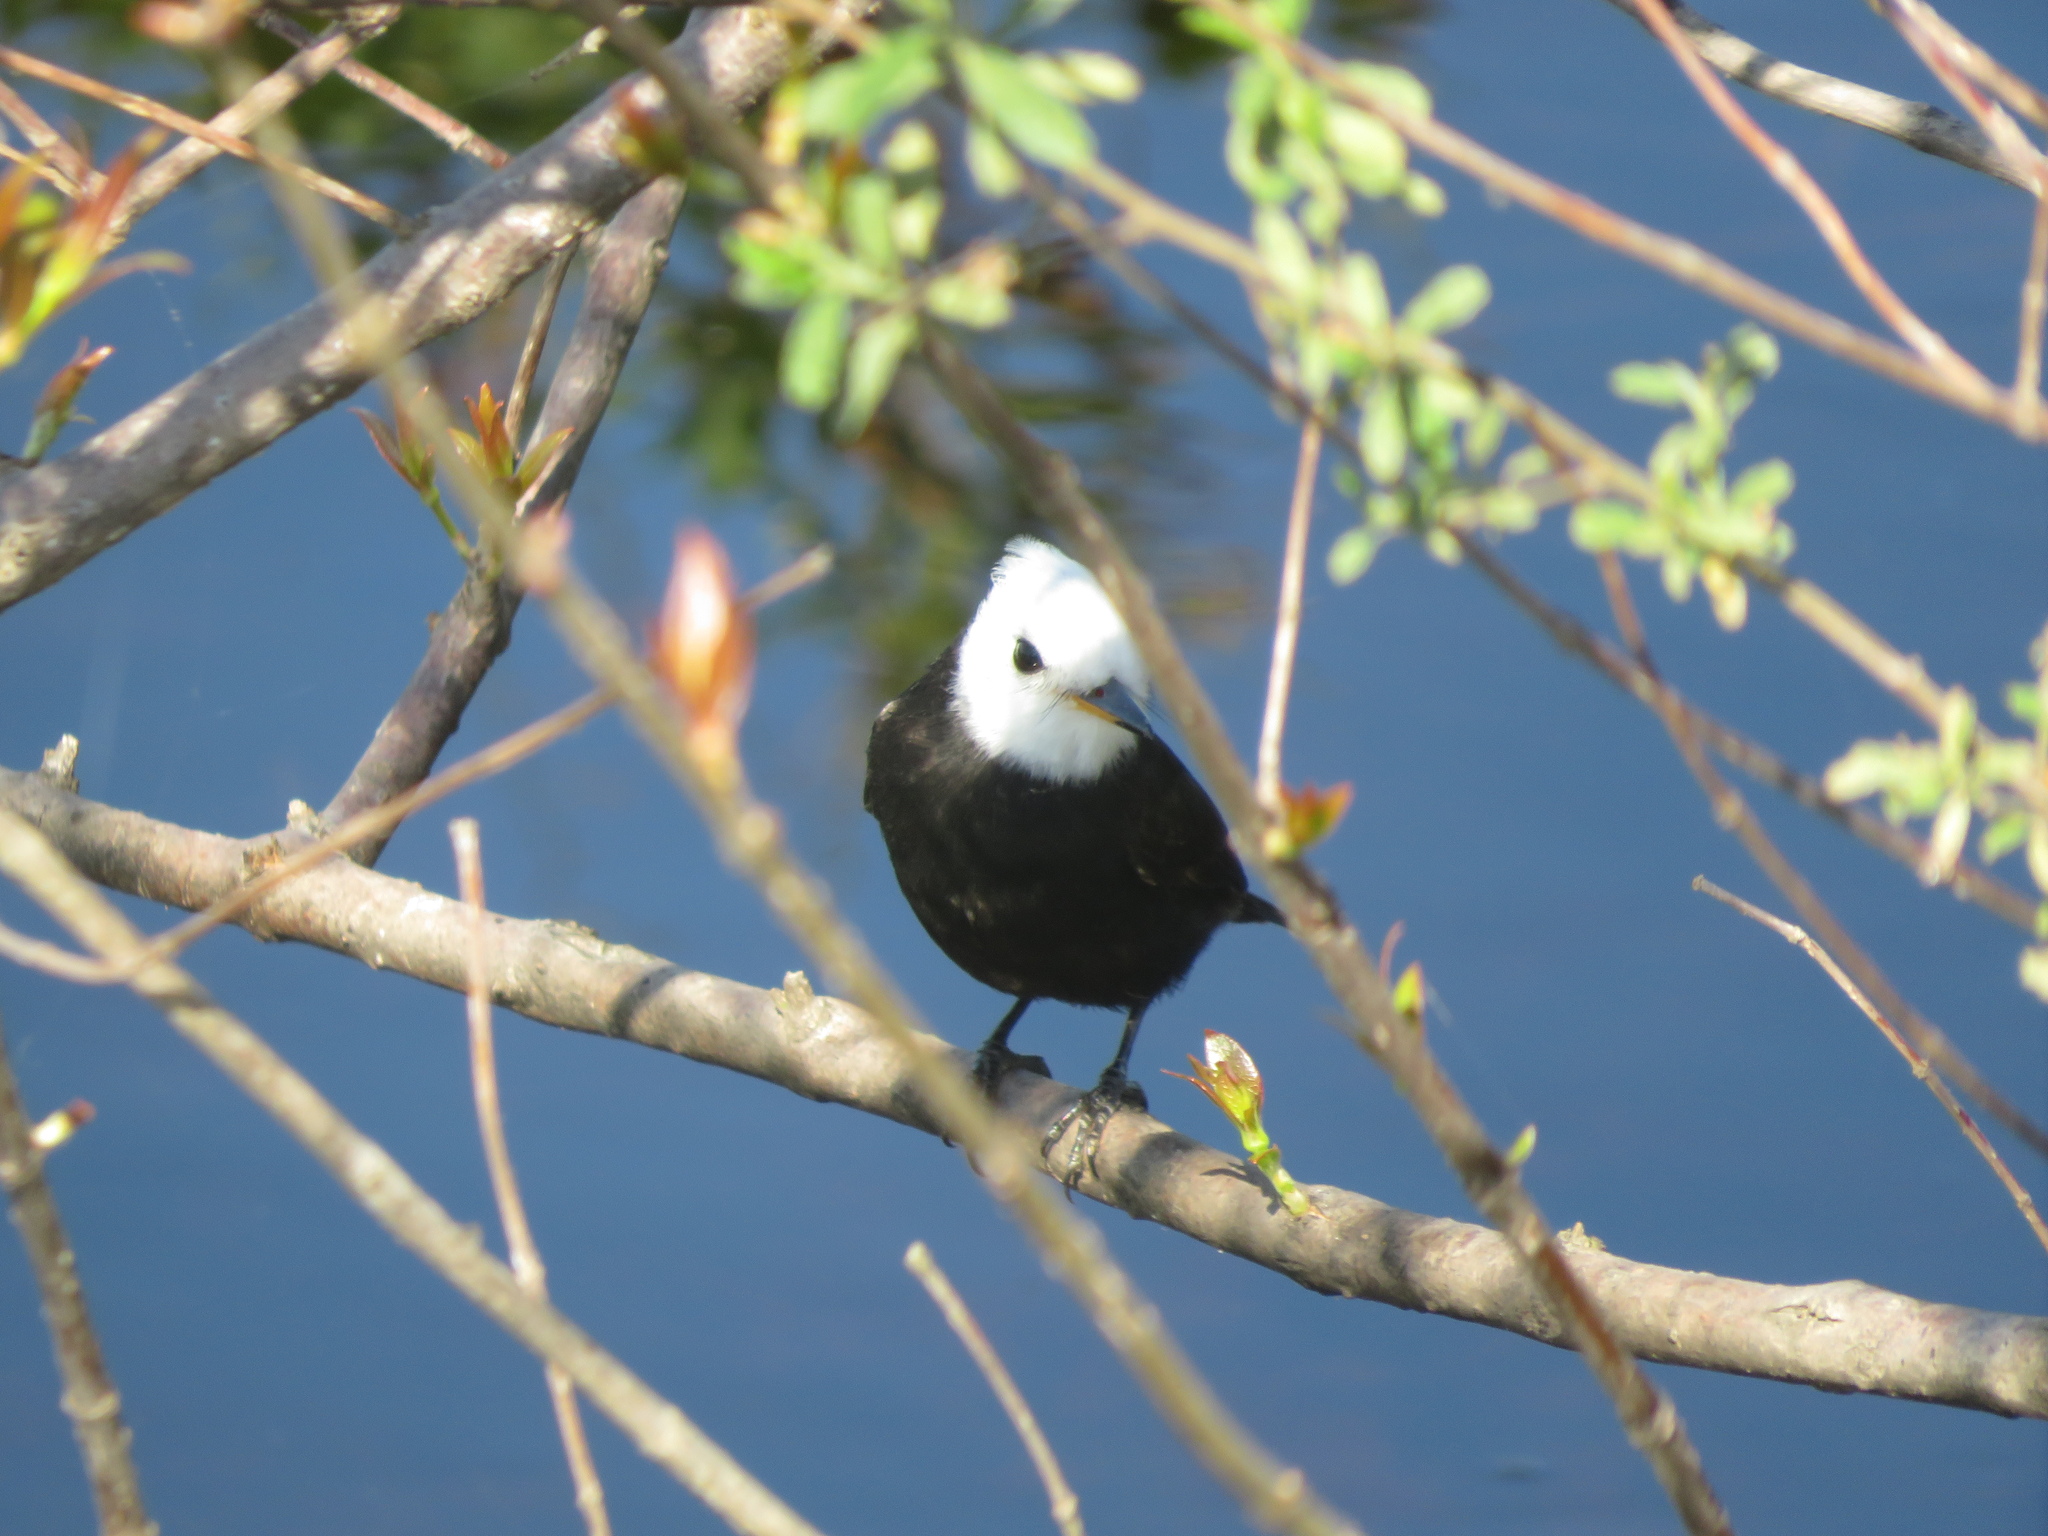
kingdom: Animalia
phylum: Chordata
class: Aves
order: Passeriformes
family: Tyrannidae
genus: Arundinicola
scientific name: Arundinicola leucocephala
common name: White-headed marsh tyrant
